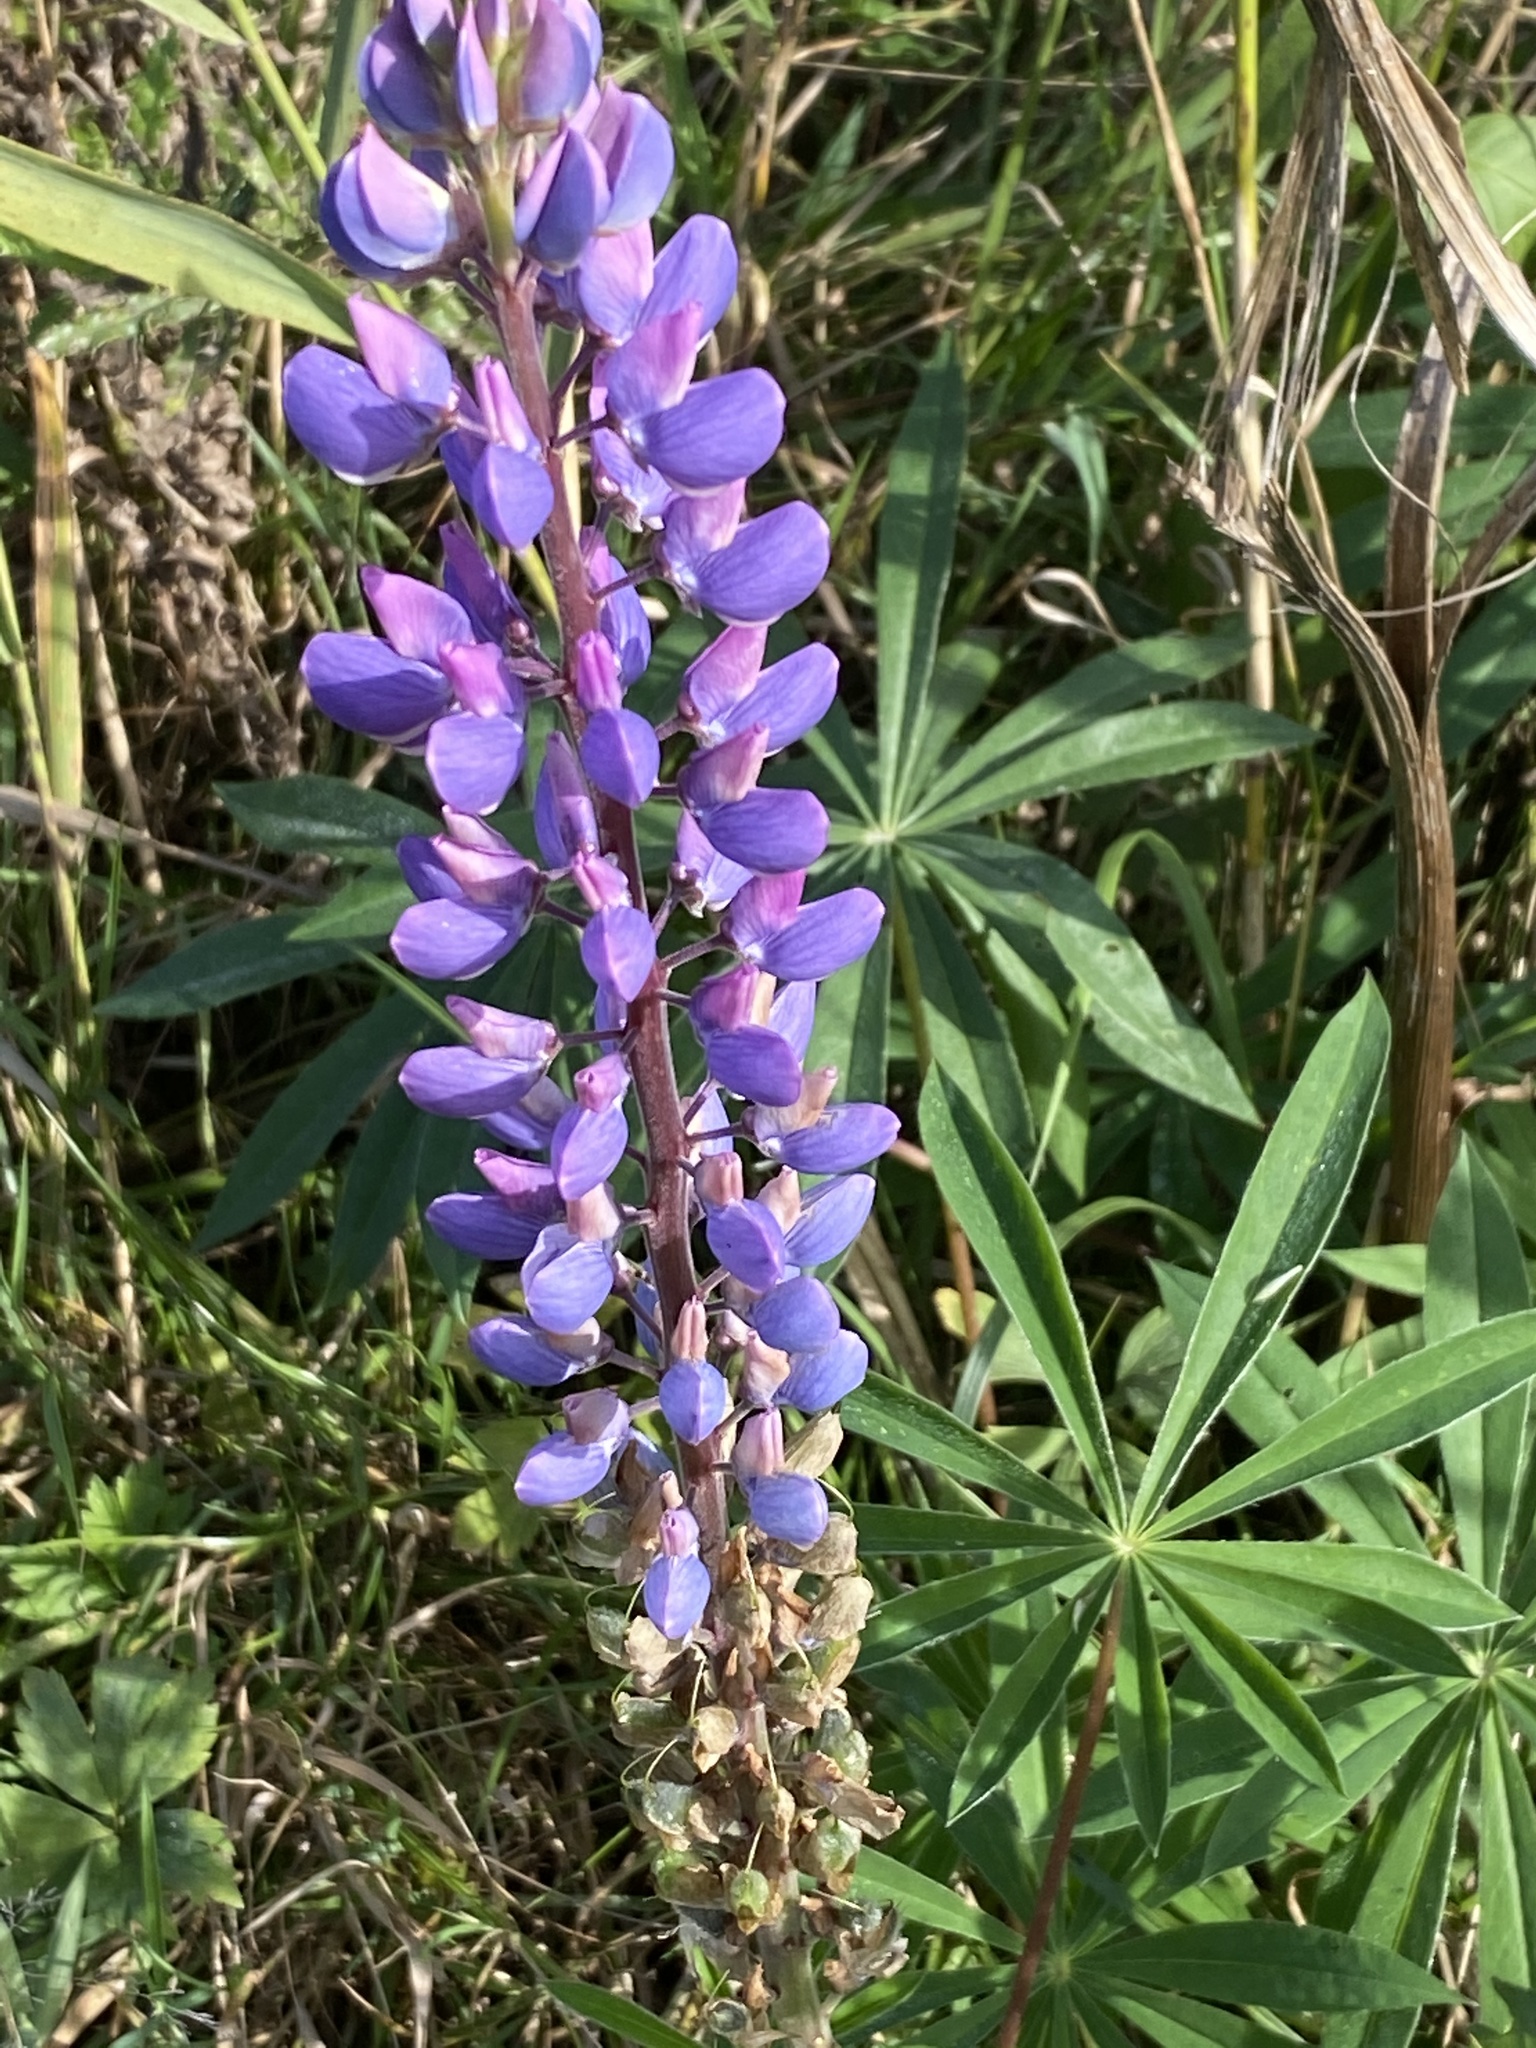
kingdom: Plantae
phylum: Tracheophyta
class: Magnoliopsida
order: Fabales
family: Fabaceae
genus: Lupinus
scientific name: Lupinus polyphyllus
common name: Garden lupin
